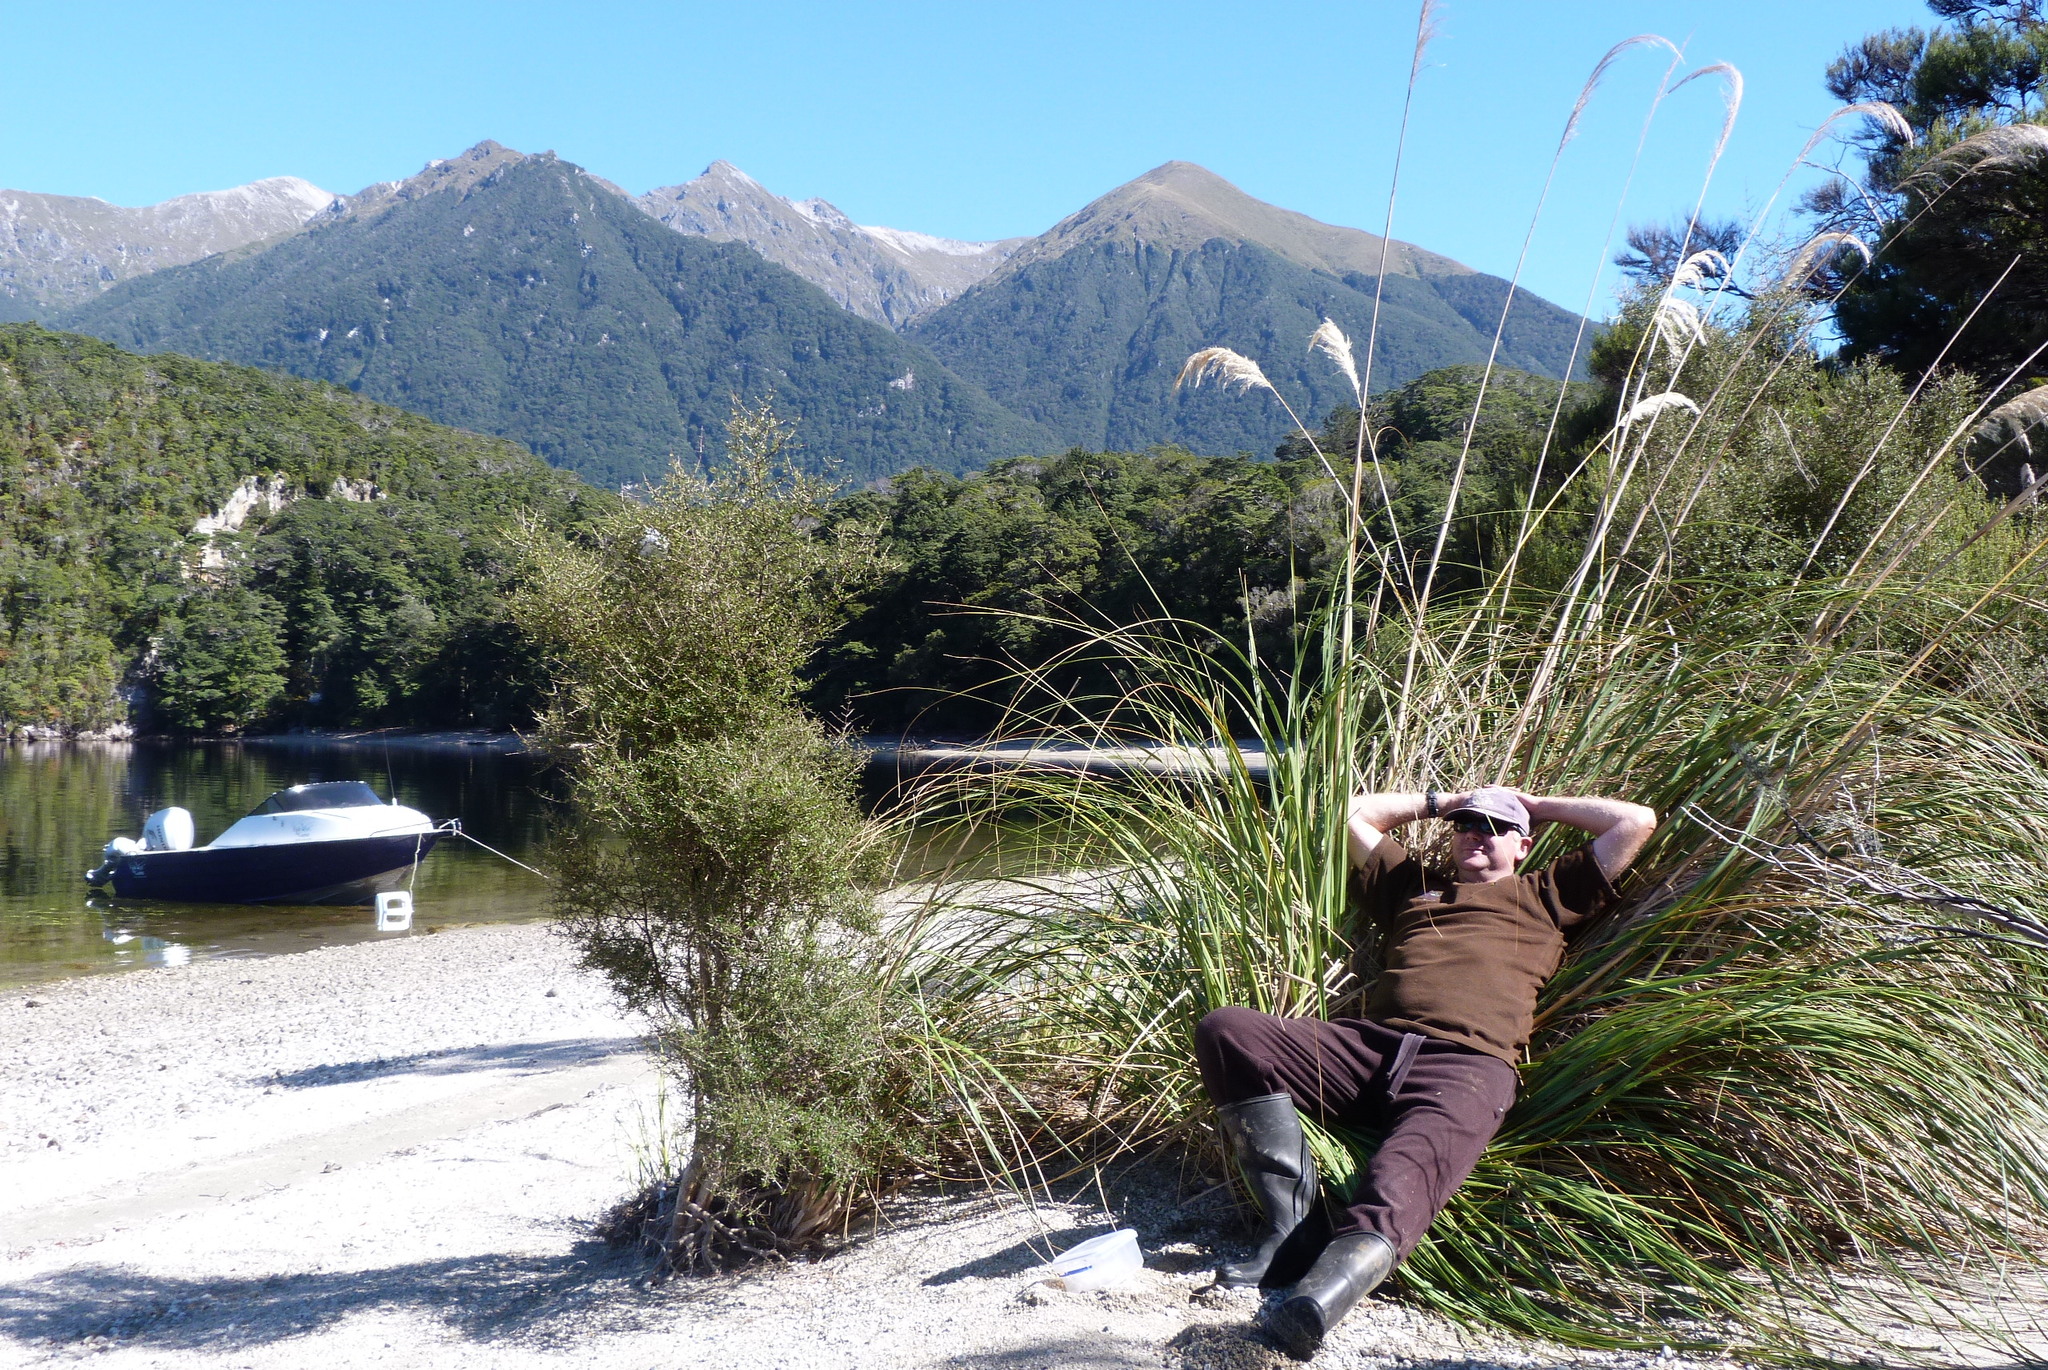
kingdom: Plantae
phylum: Tracheophyta
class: Liliopsida
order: Poales
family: Poaceae
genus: Austroderia
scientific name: Austroderia richardii
